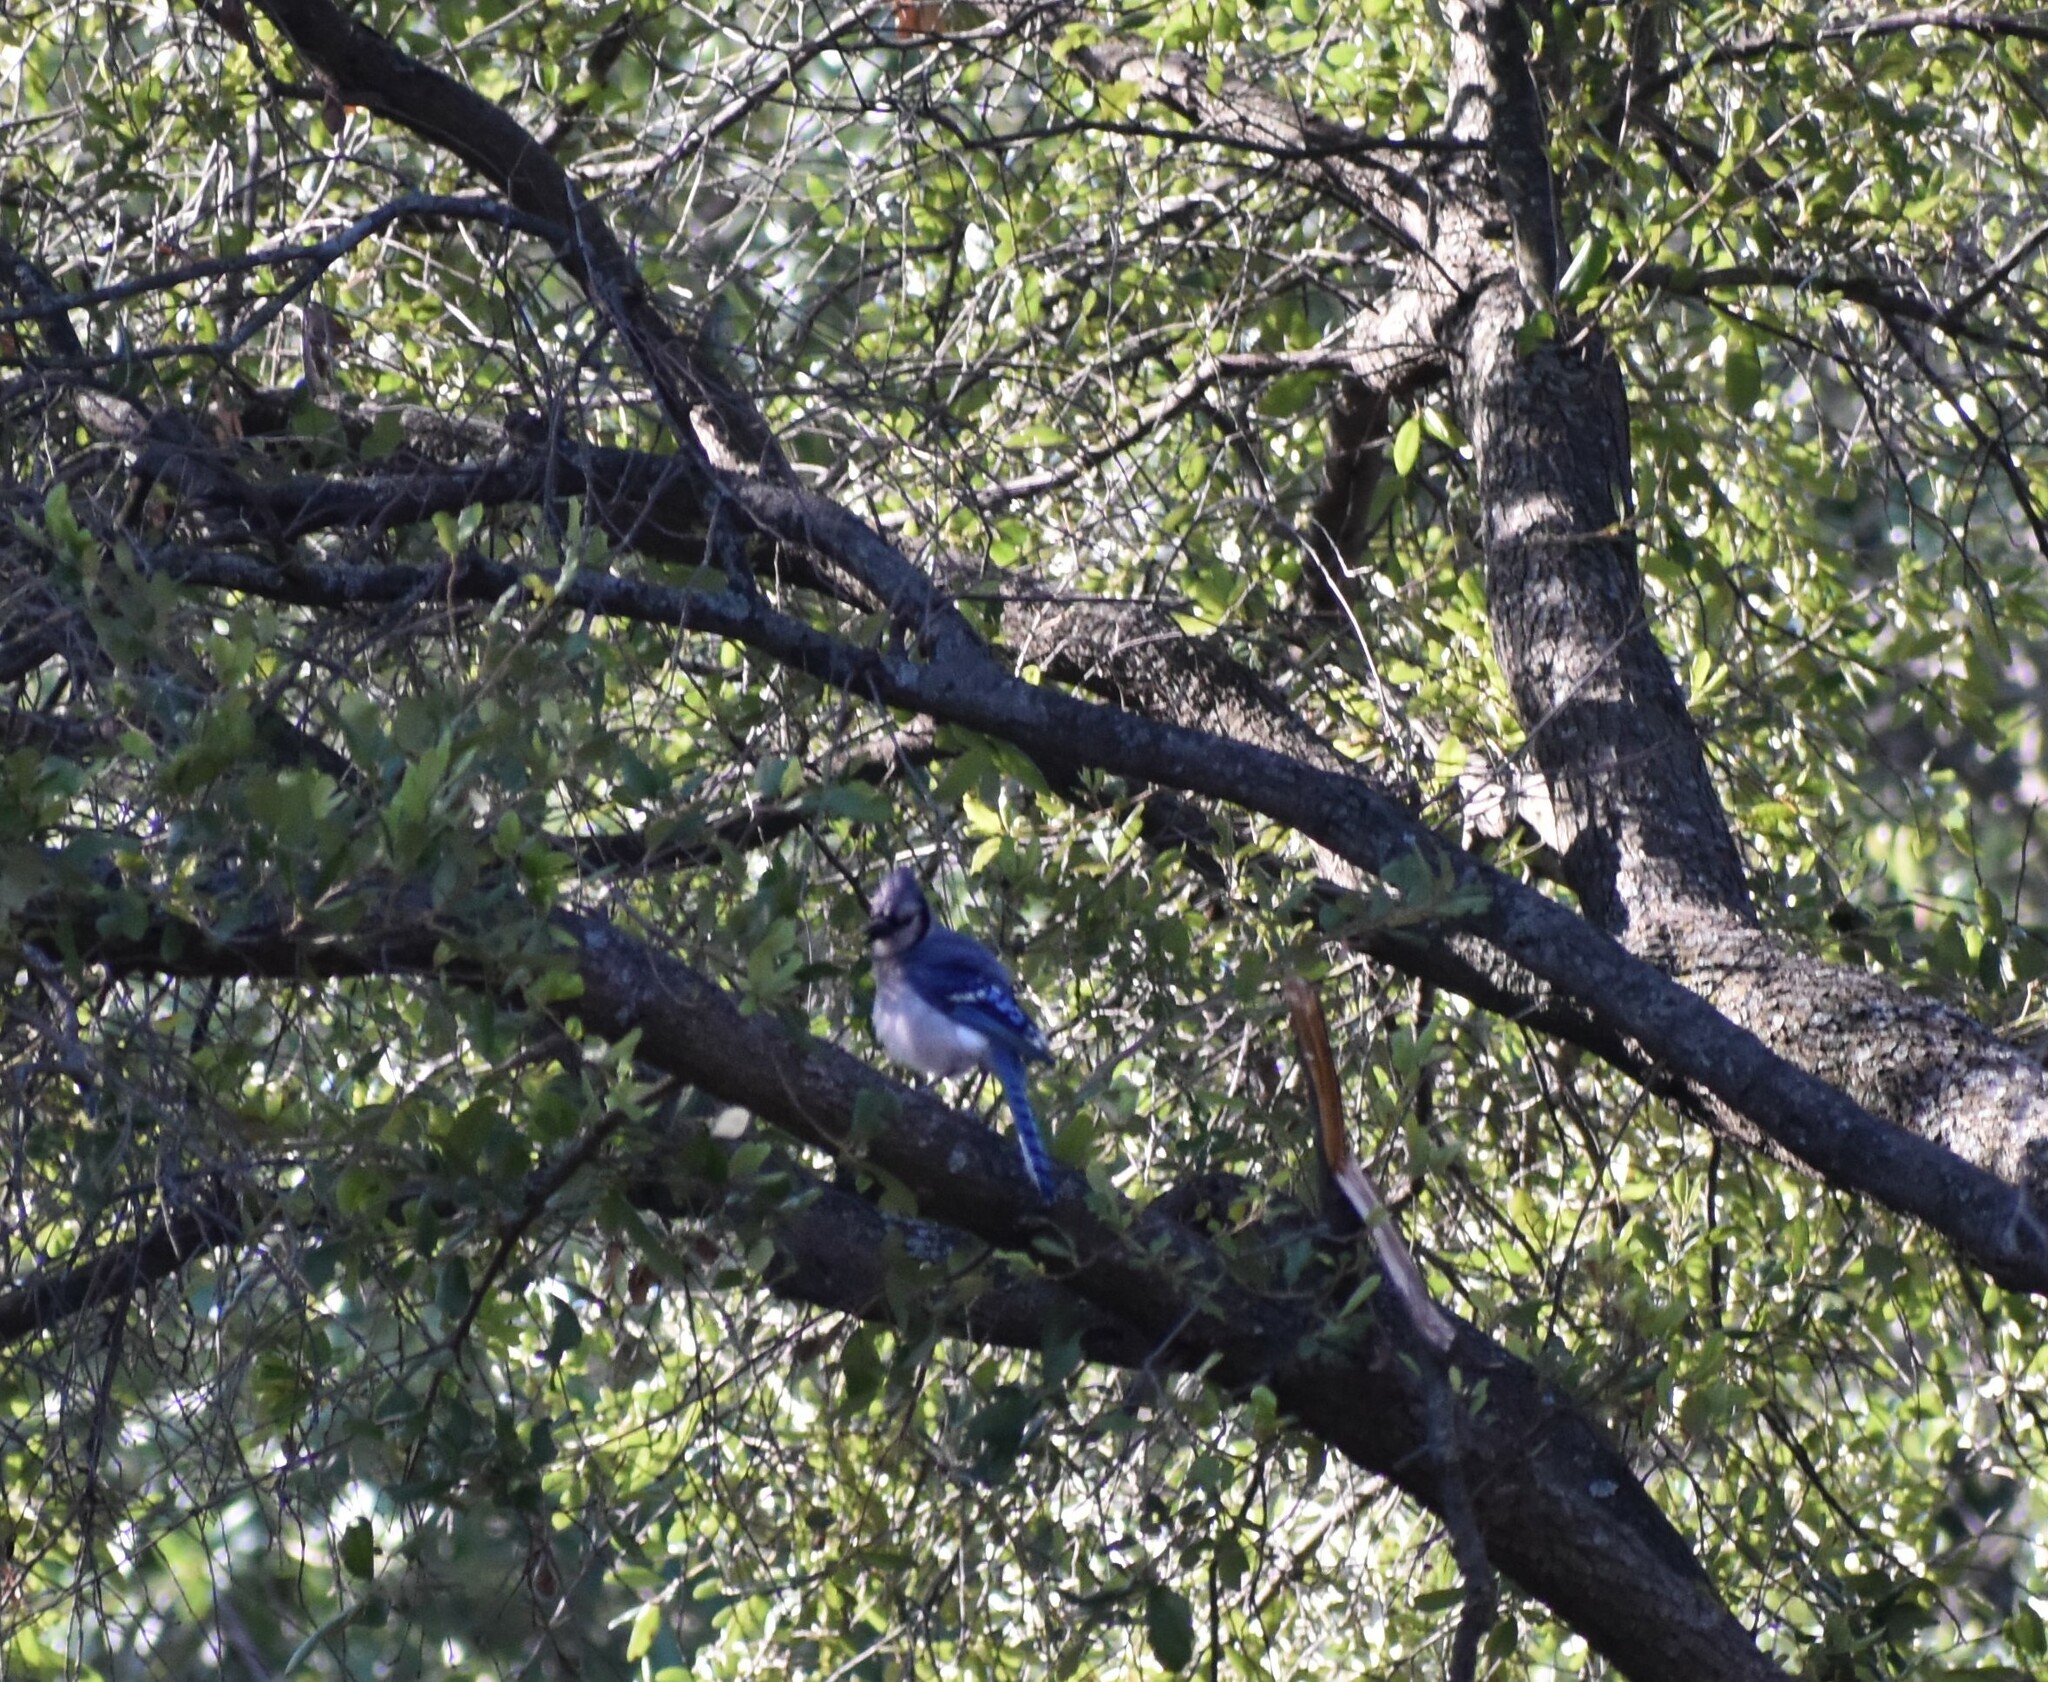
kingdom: Animalia
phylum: Chordata
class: Aves
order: Passeriformes
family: Corvidae
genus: Cyanocitta
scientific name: Cyanocitta cristata
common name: Blue jay
